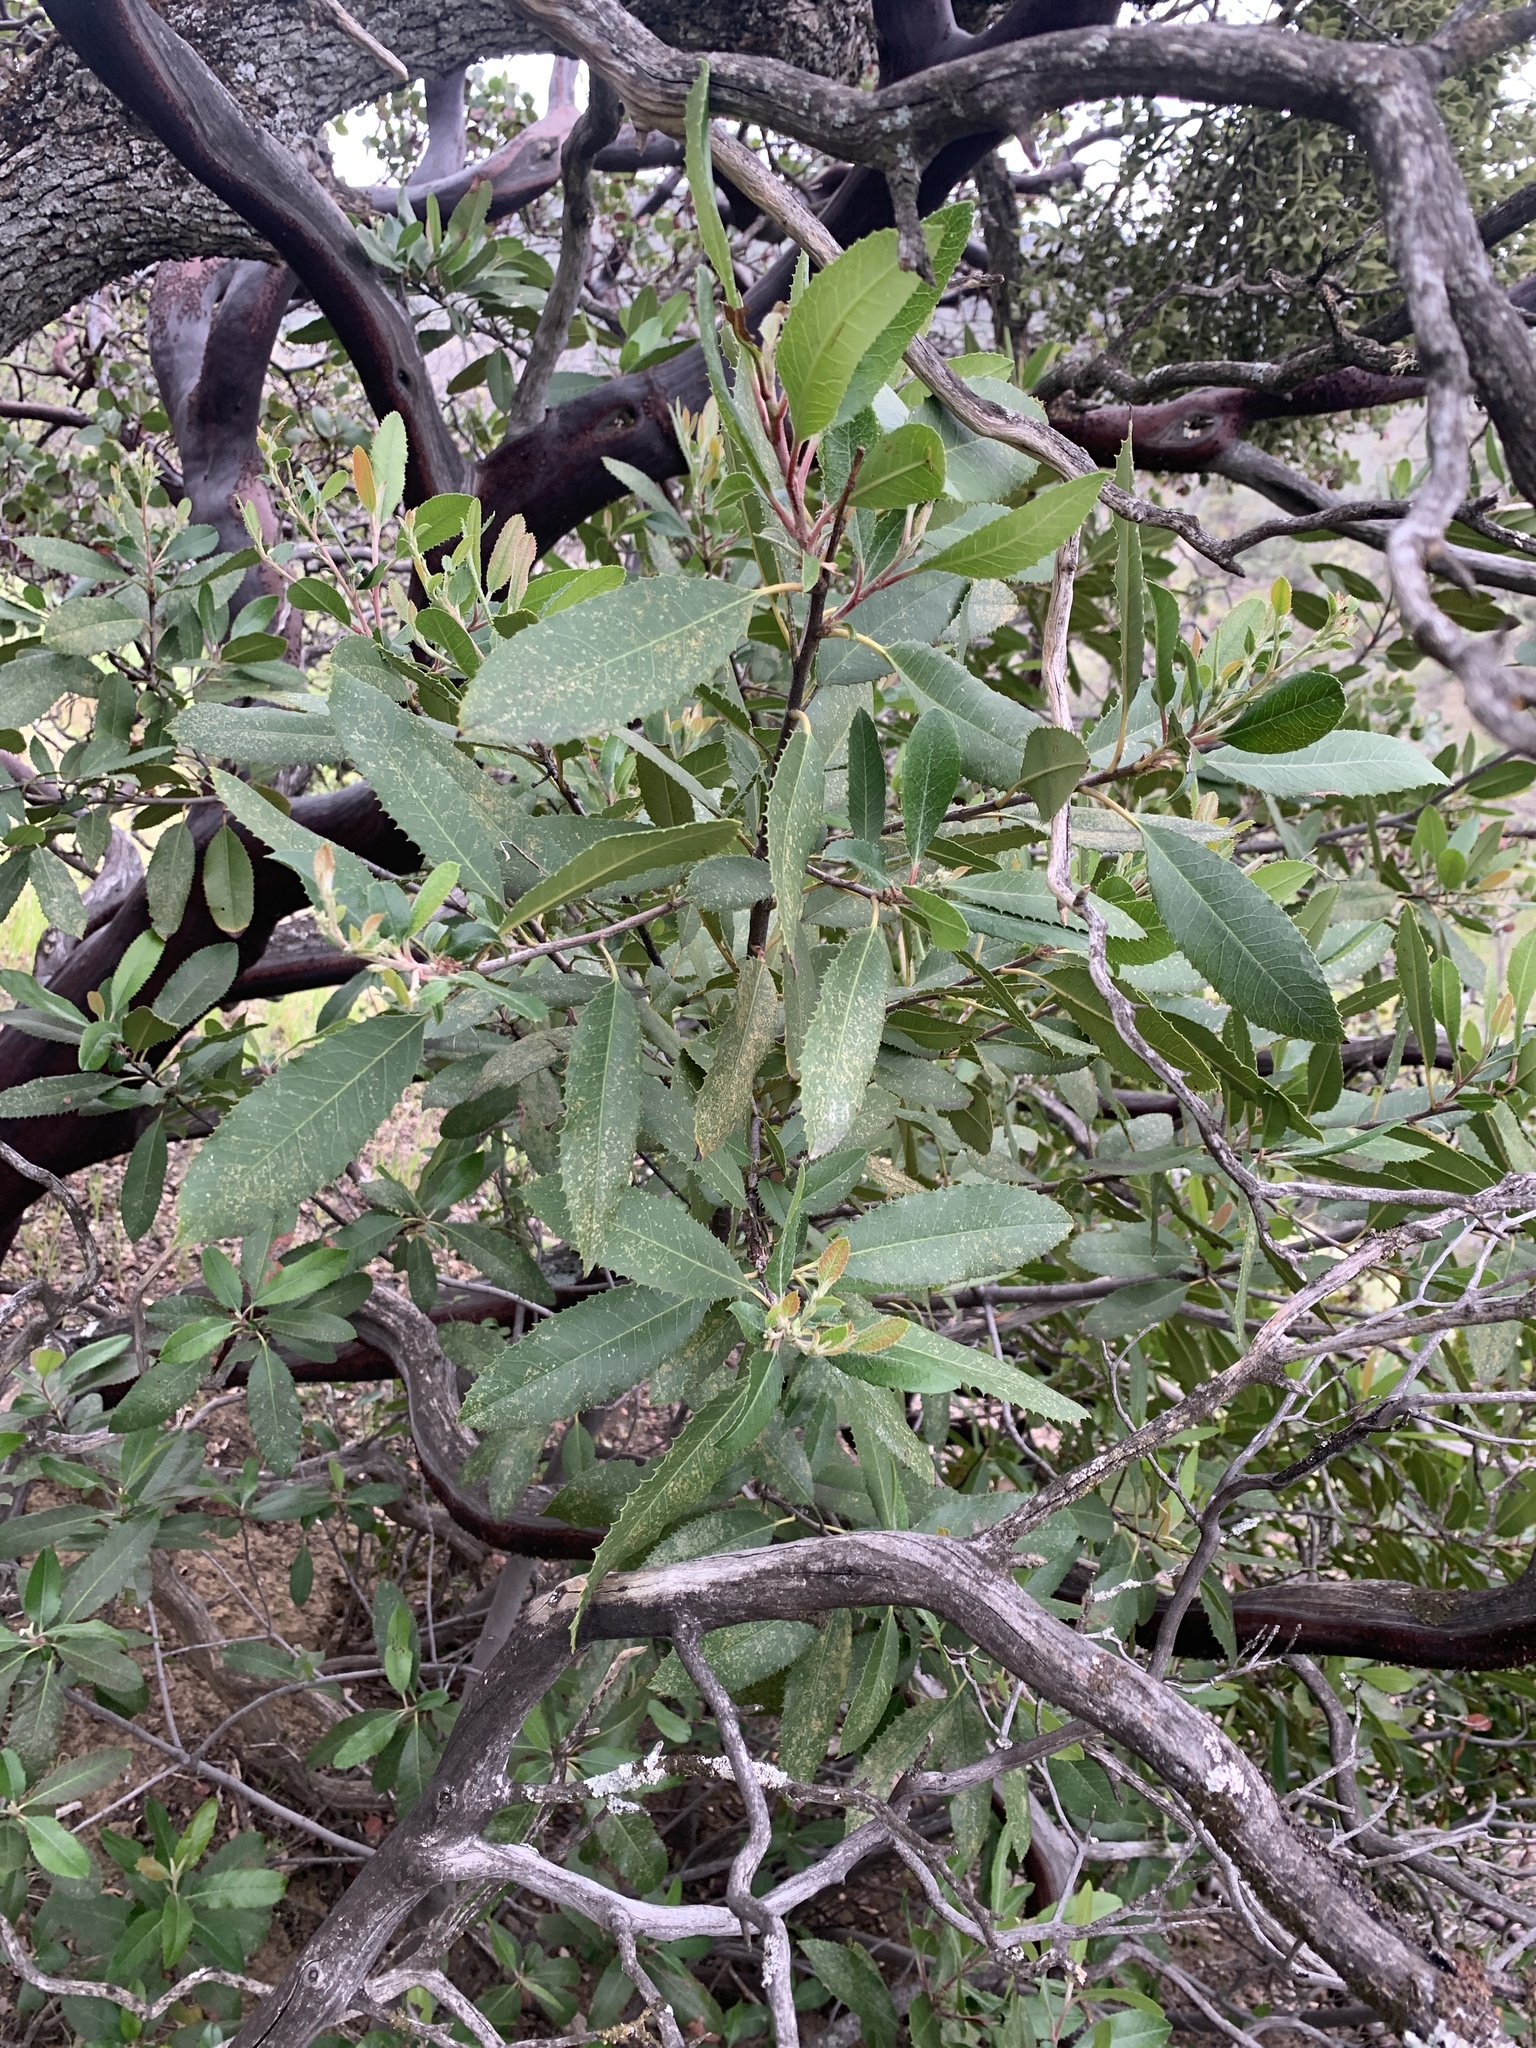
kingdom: Plantae
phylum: Tracheophyta
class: Magnoliopsida
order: Rosales
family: Rosaceae
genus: Heteromeles
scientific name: Heteromeles arbutifolia
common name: California-holly
